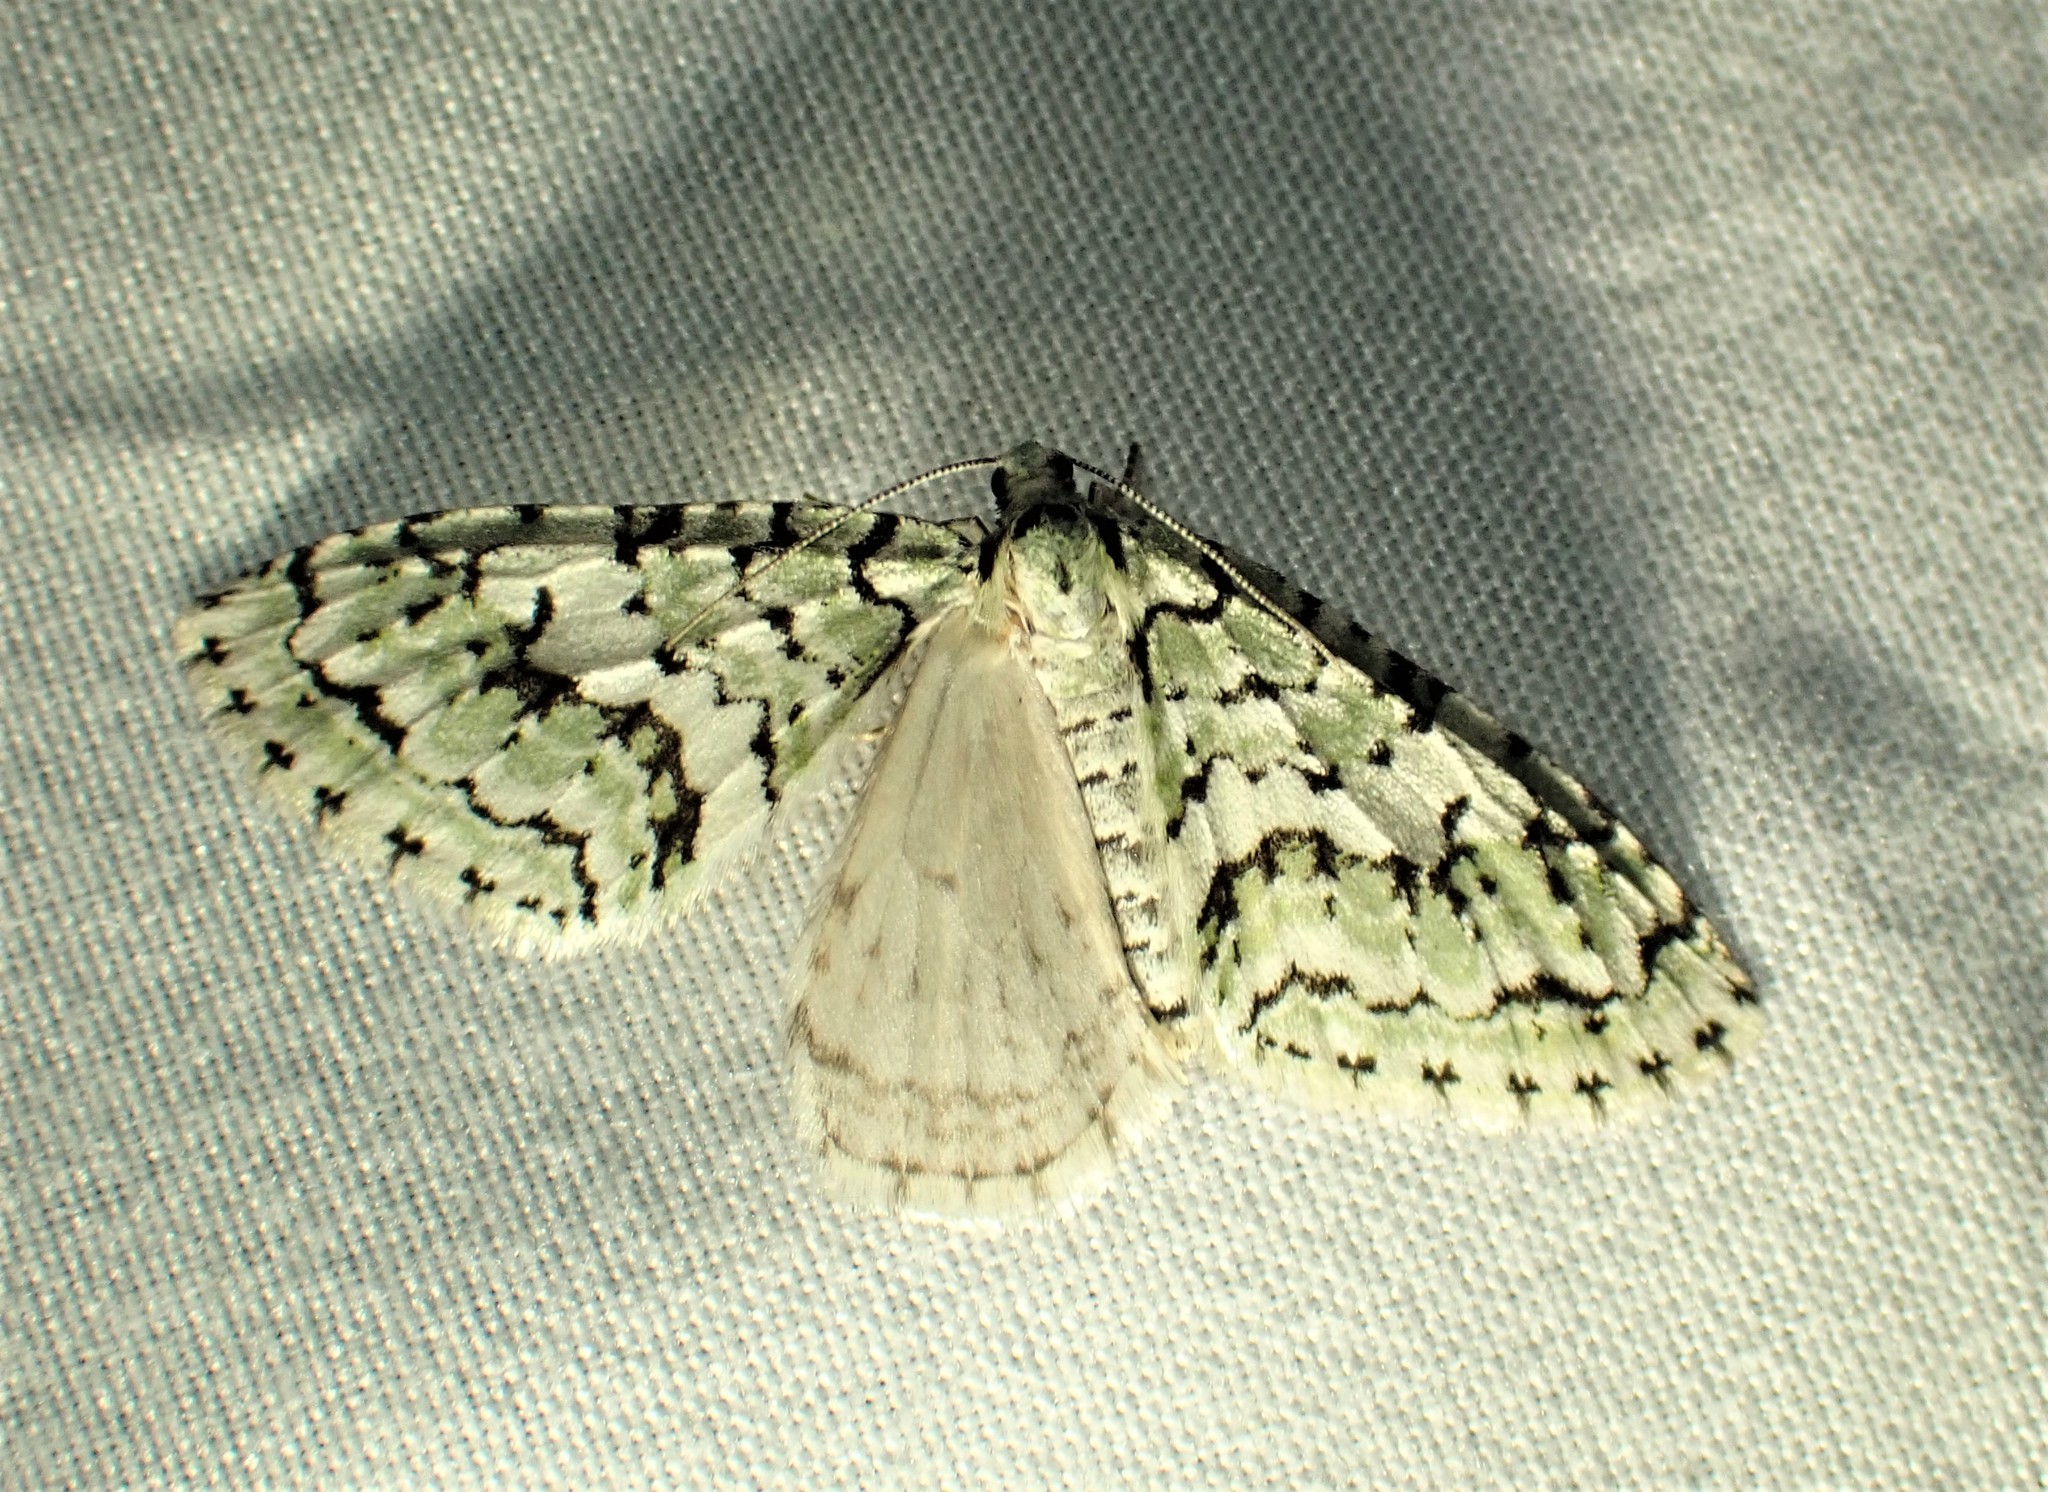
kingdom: Animalia
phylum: Arthropoda
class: Insecta
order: Lepidoptera
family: Geometridae
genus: Cladara
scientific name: Cladara atroliturata
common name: Scribbler
